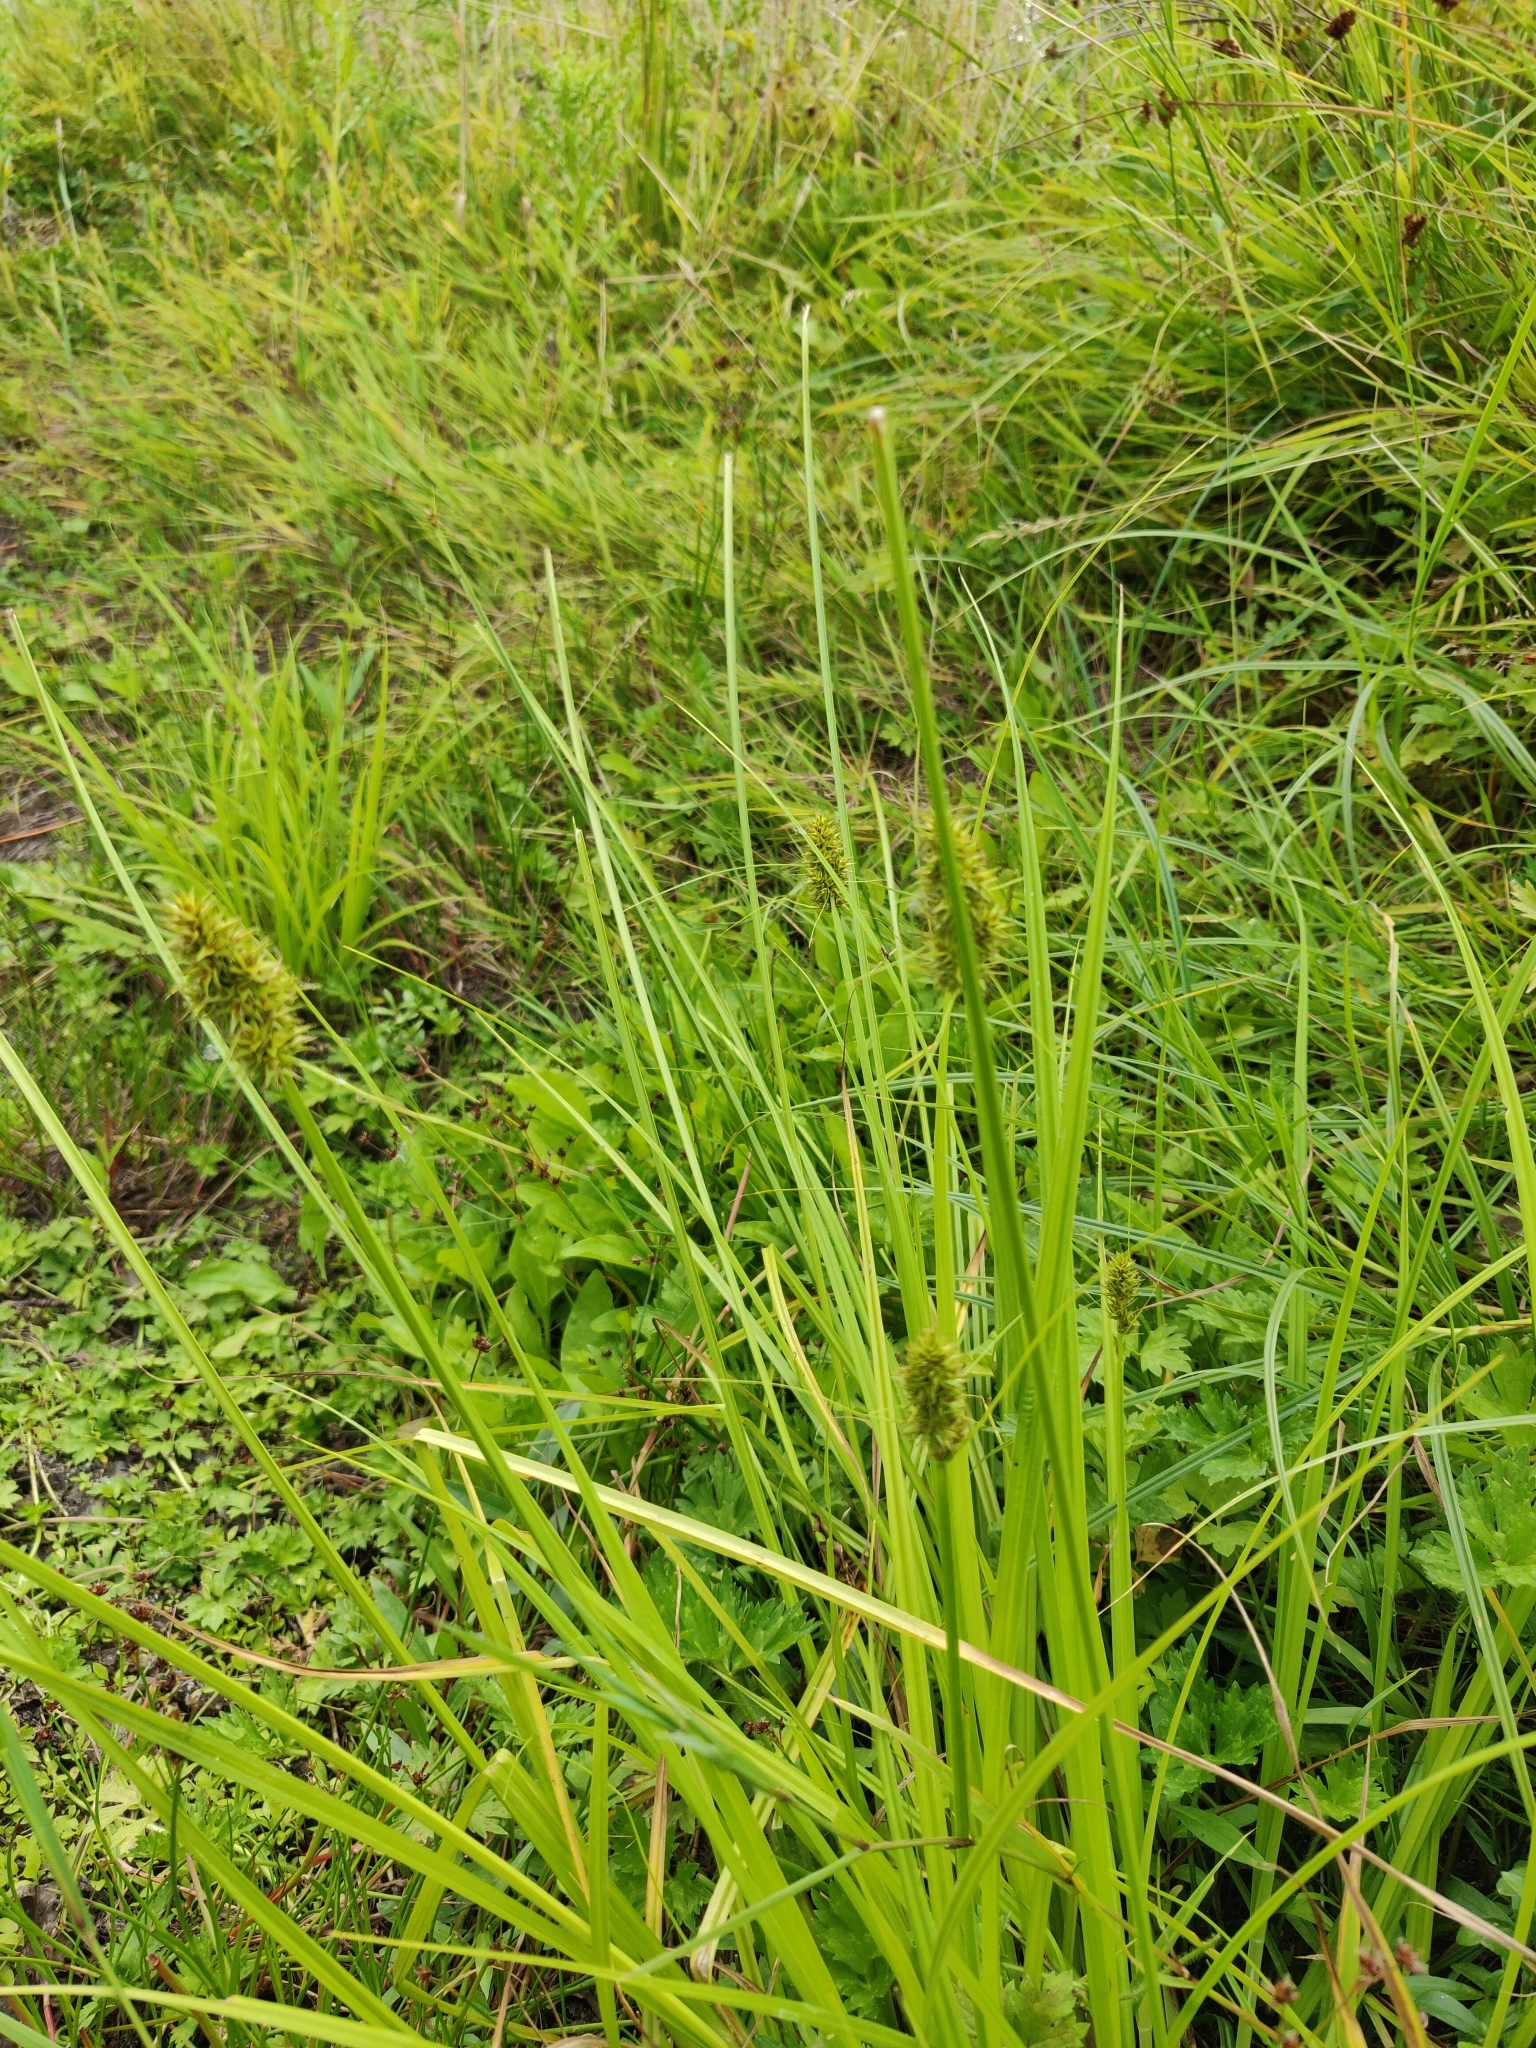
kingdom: Plantae
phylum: Tracheophyta
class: Liliopsida
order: Poales
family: Cyperaceae
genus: Carex
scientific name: Carex otrubae
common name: False fox-sedge
